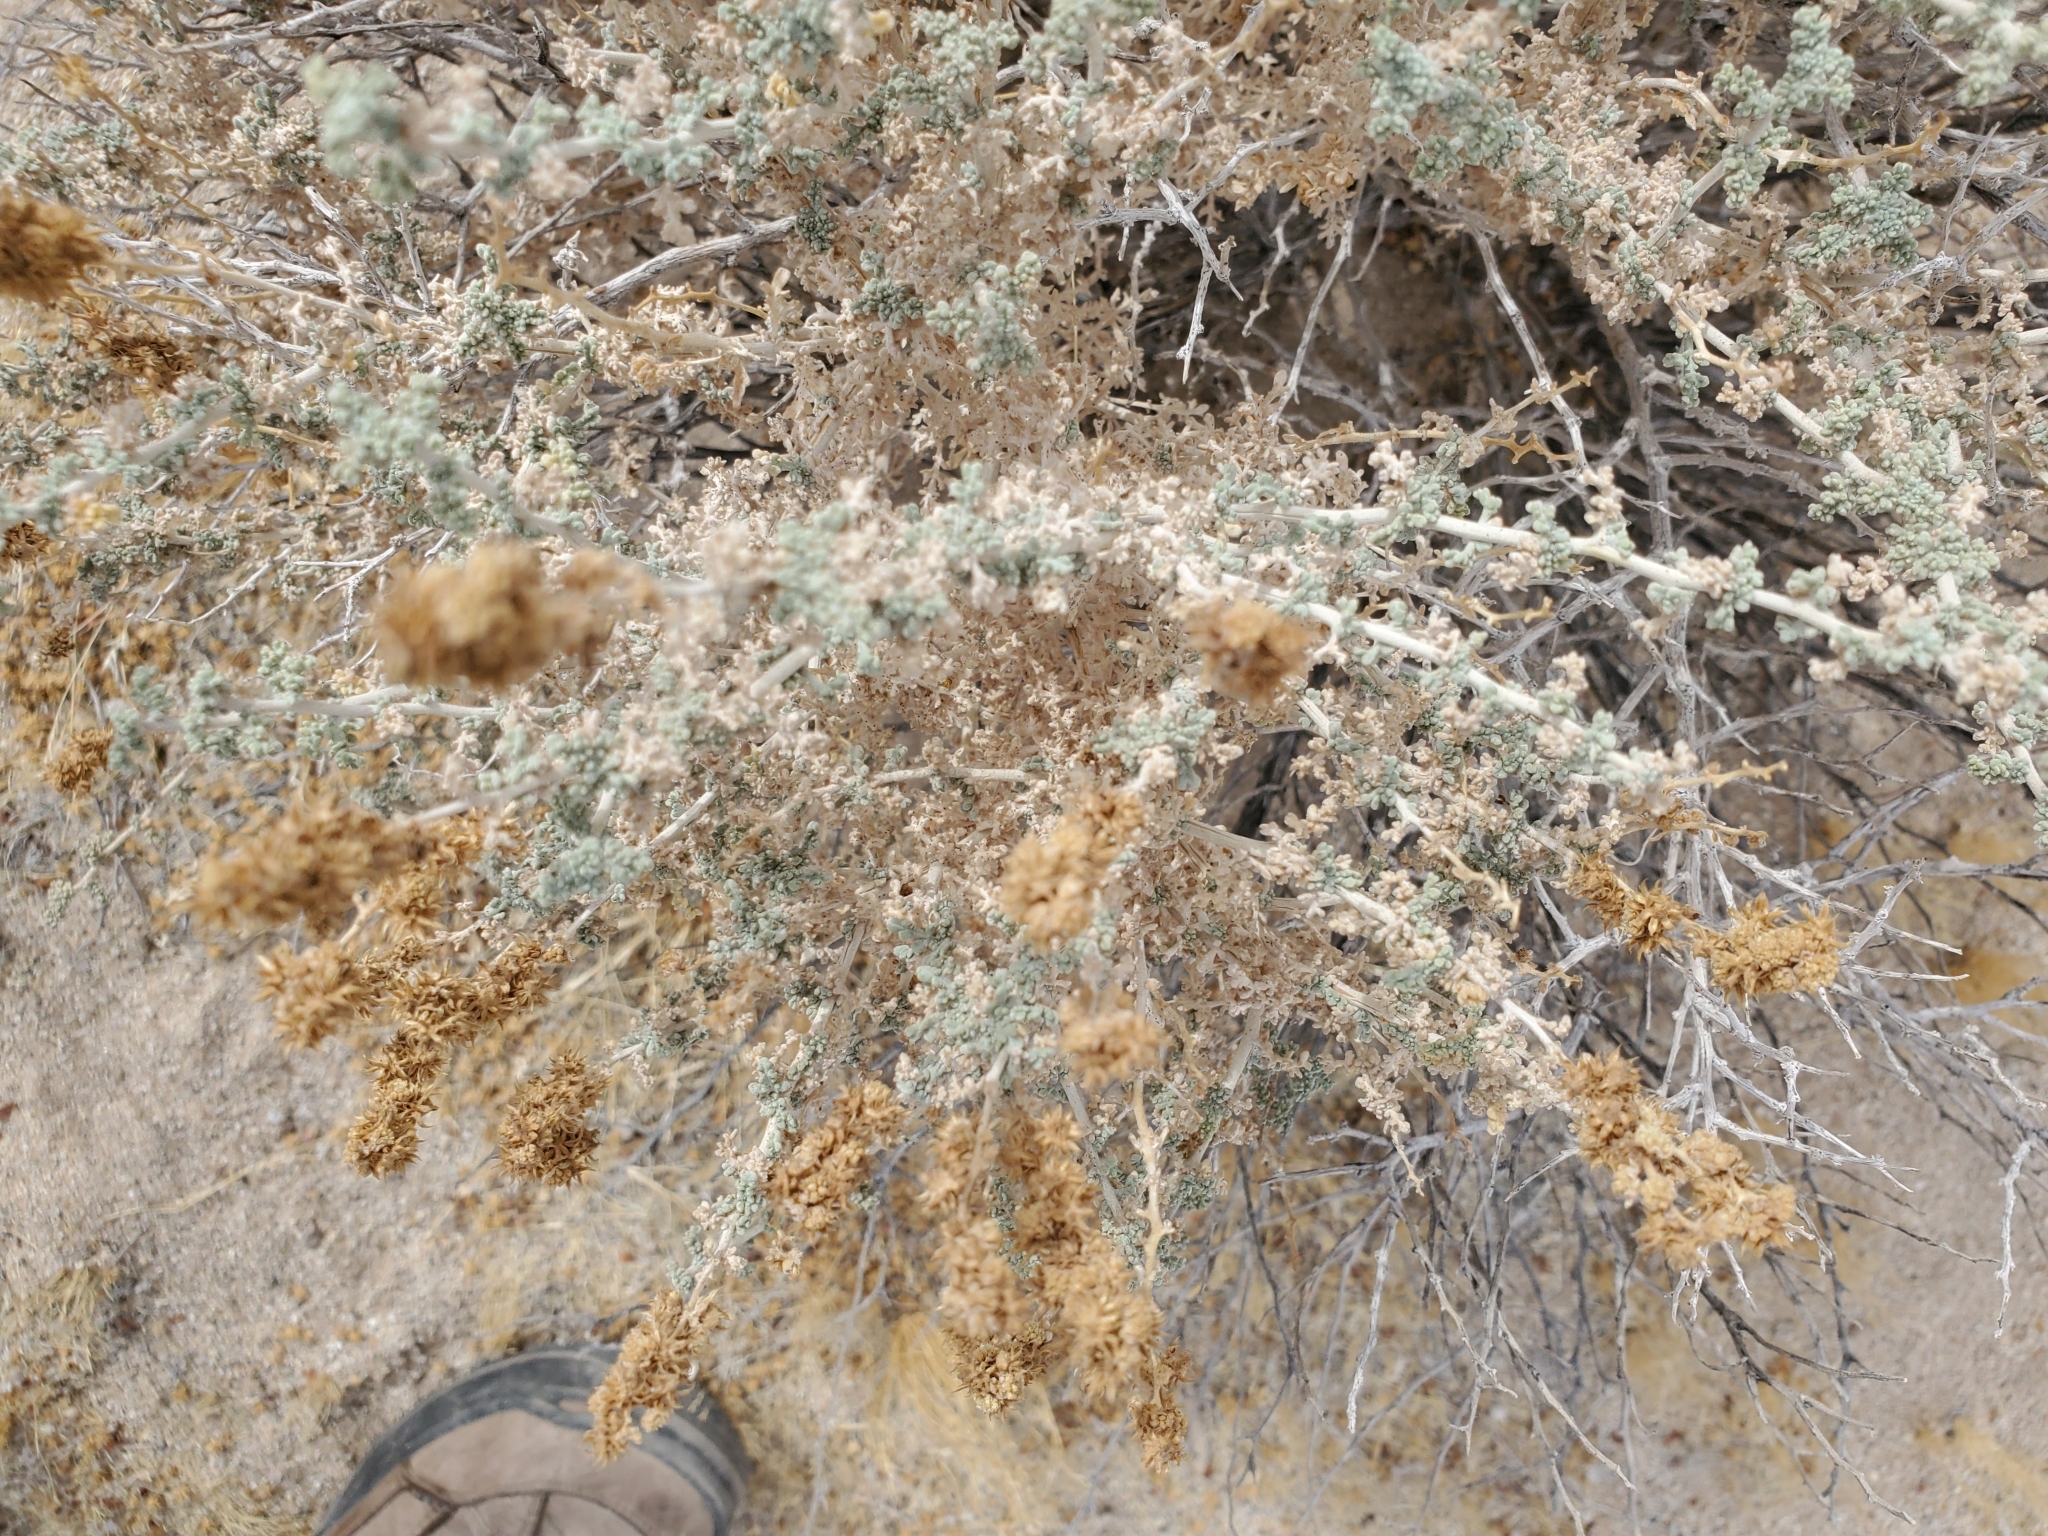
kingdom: Plantae
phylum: Tracheophyta
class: Magnoliopsida
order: Asterales
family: Asteraceae
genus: Ambrosia
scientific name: Ambrosia dumosa
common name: Bur-sage
